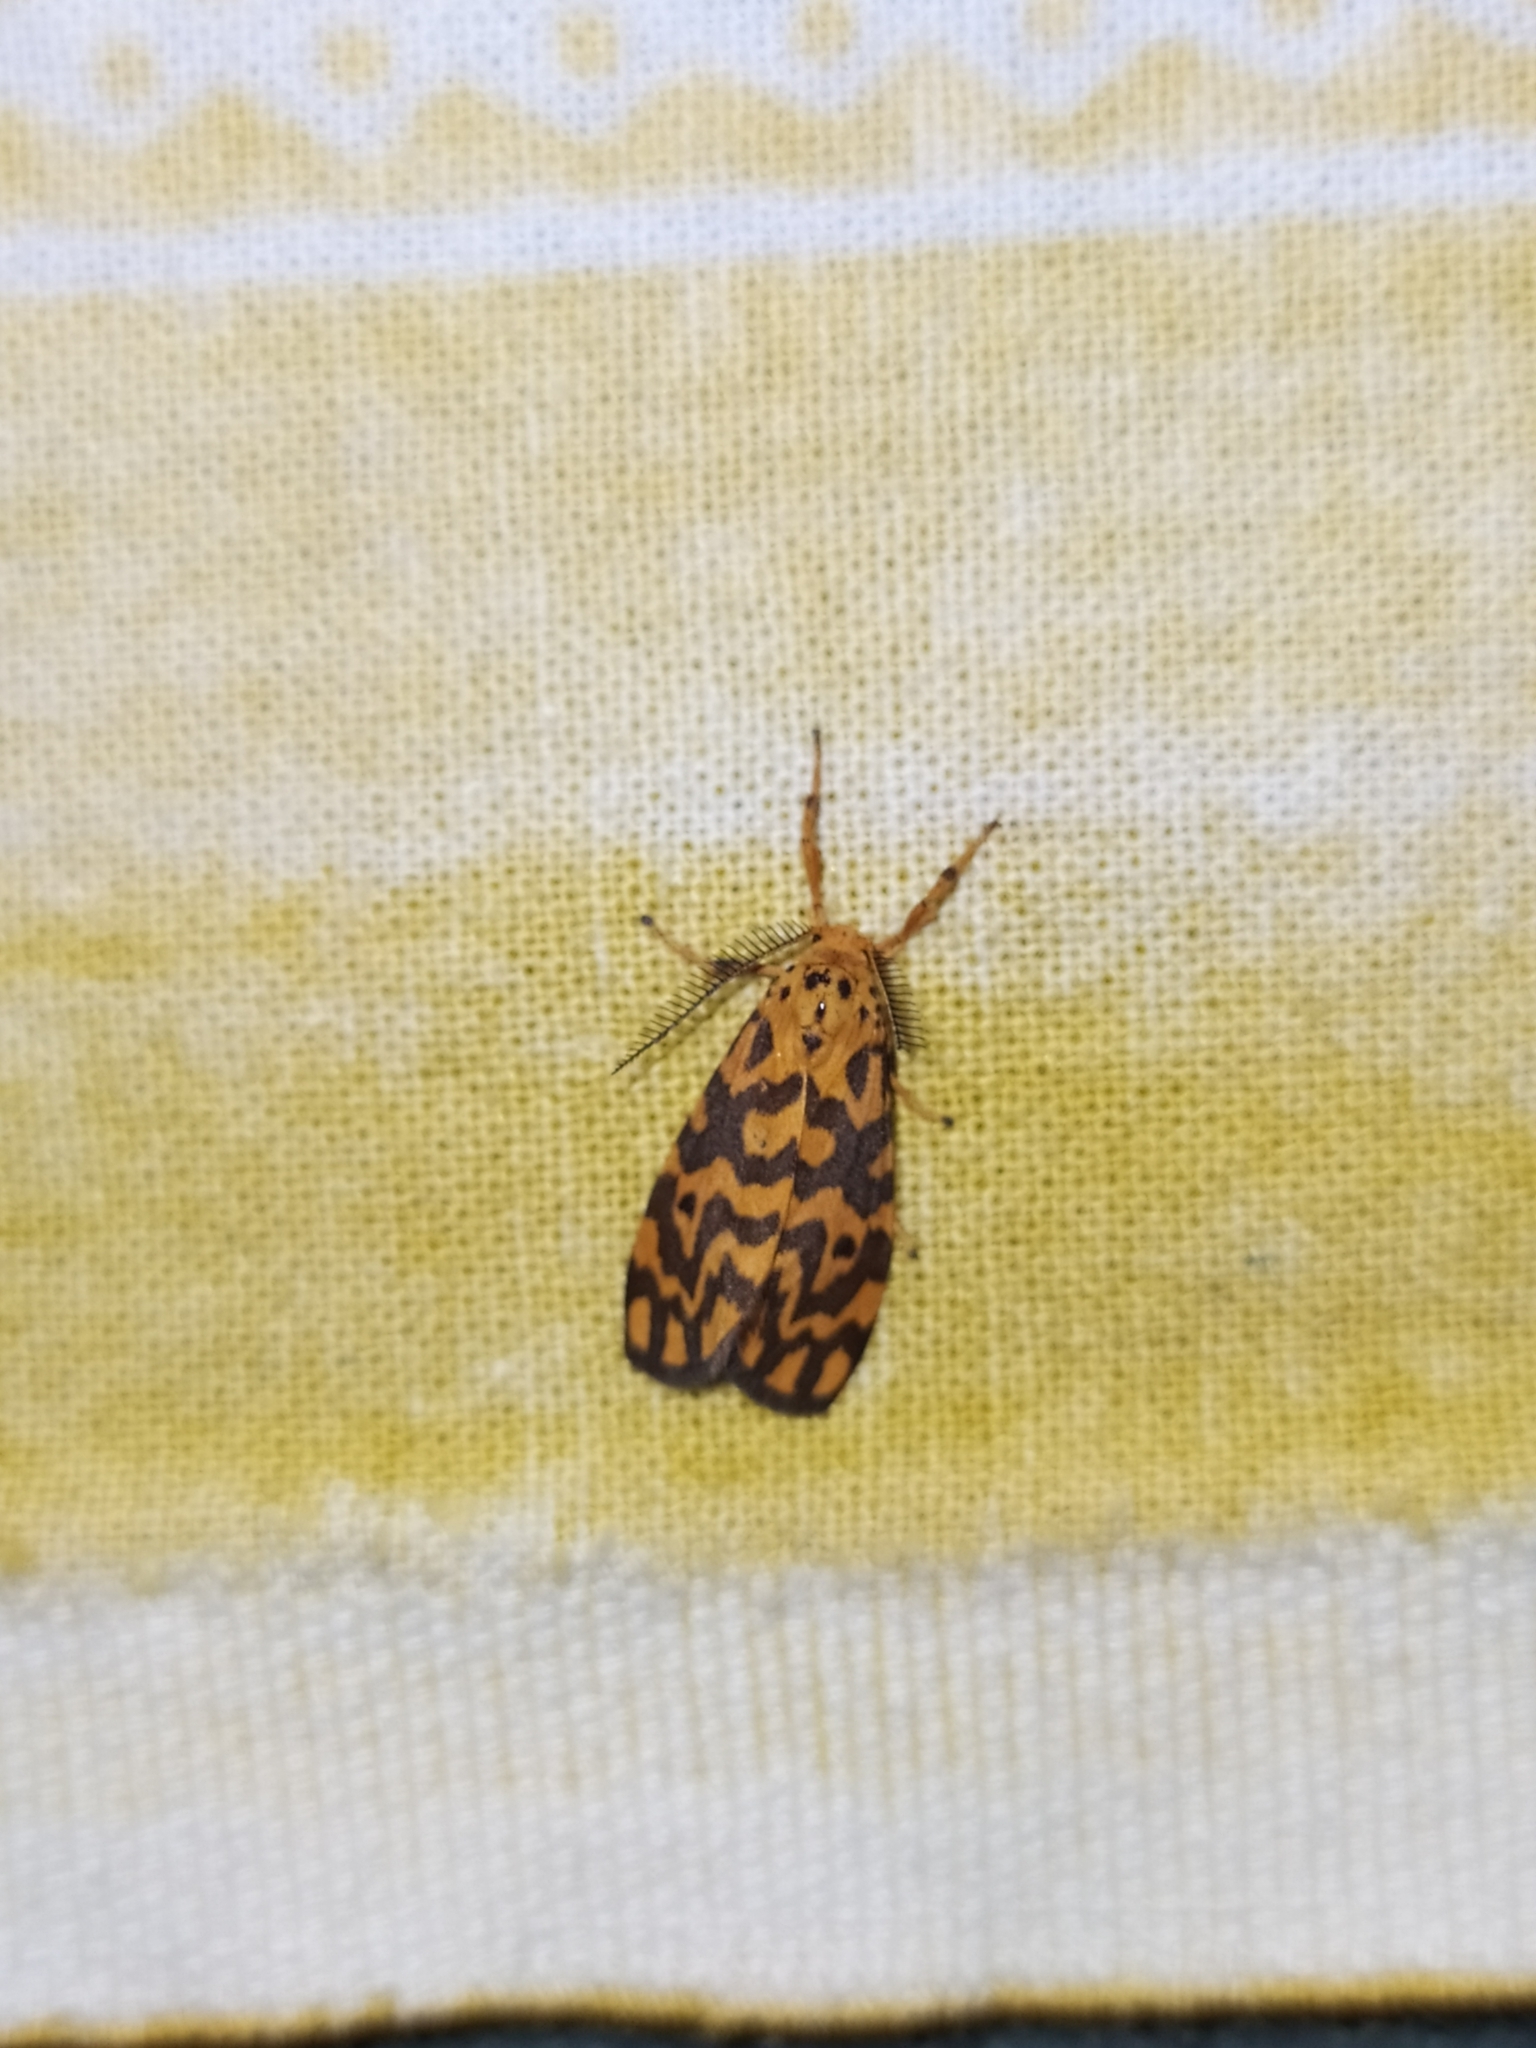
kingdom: Animalia
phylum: Arthropoda
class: Insecta
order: Lepidoptera
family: Erebidae
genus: Nepita
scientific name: Nepita conferta
